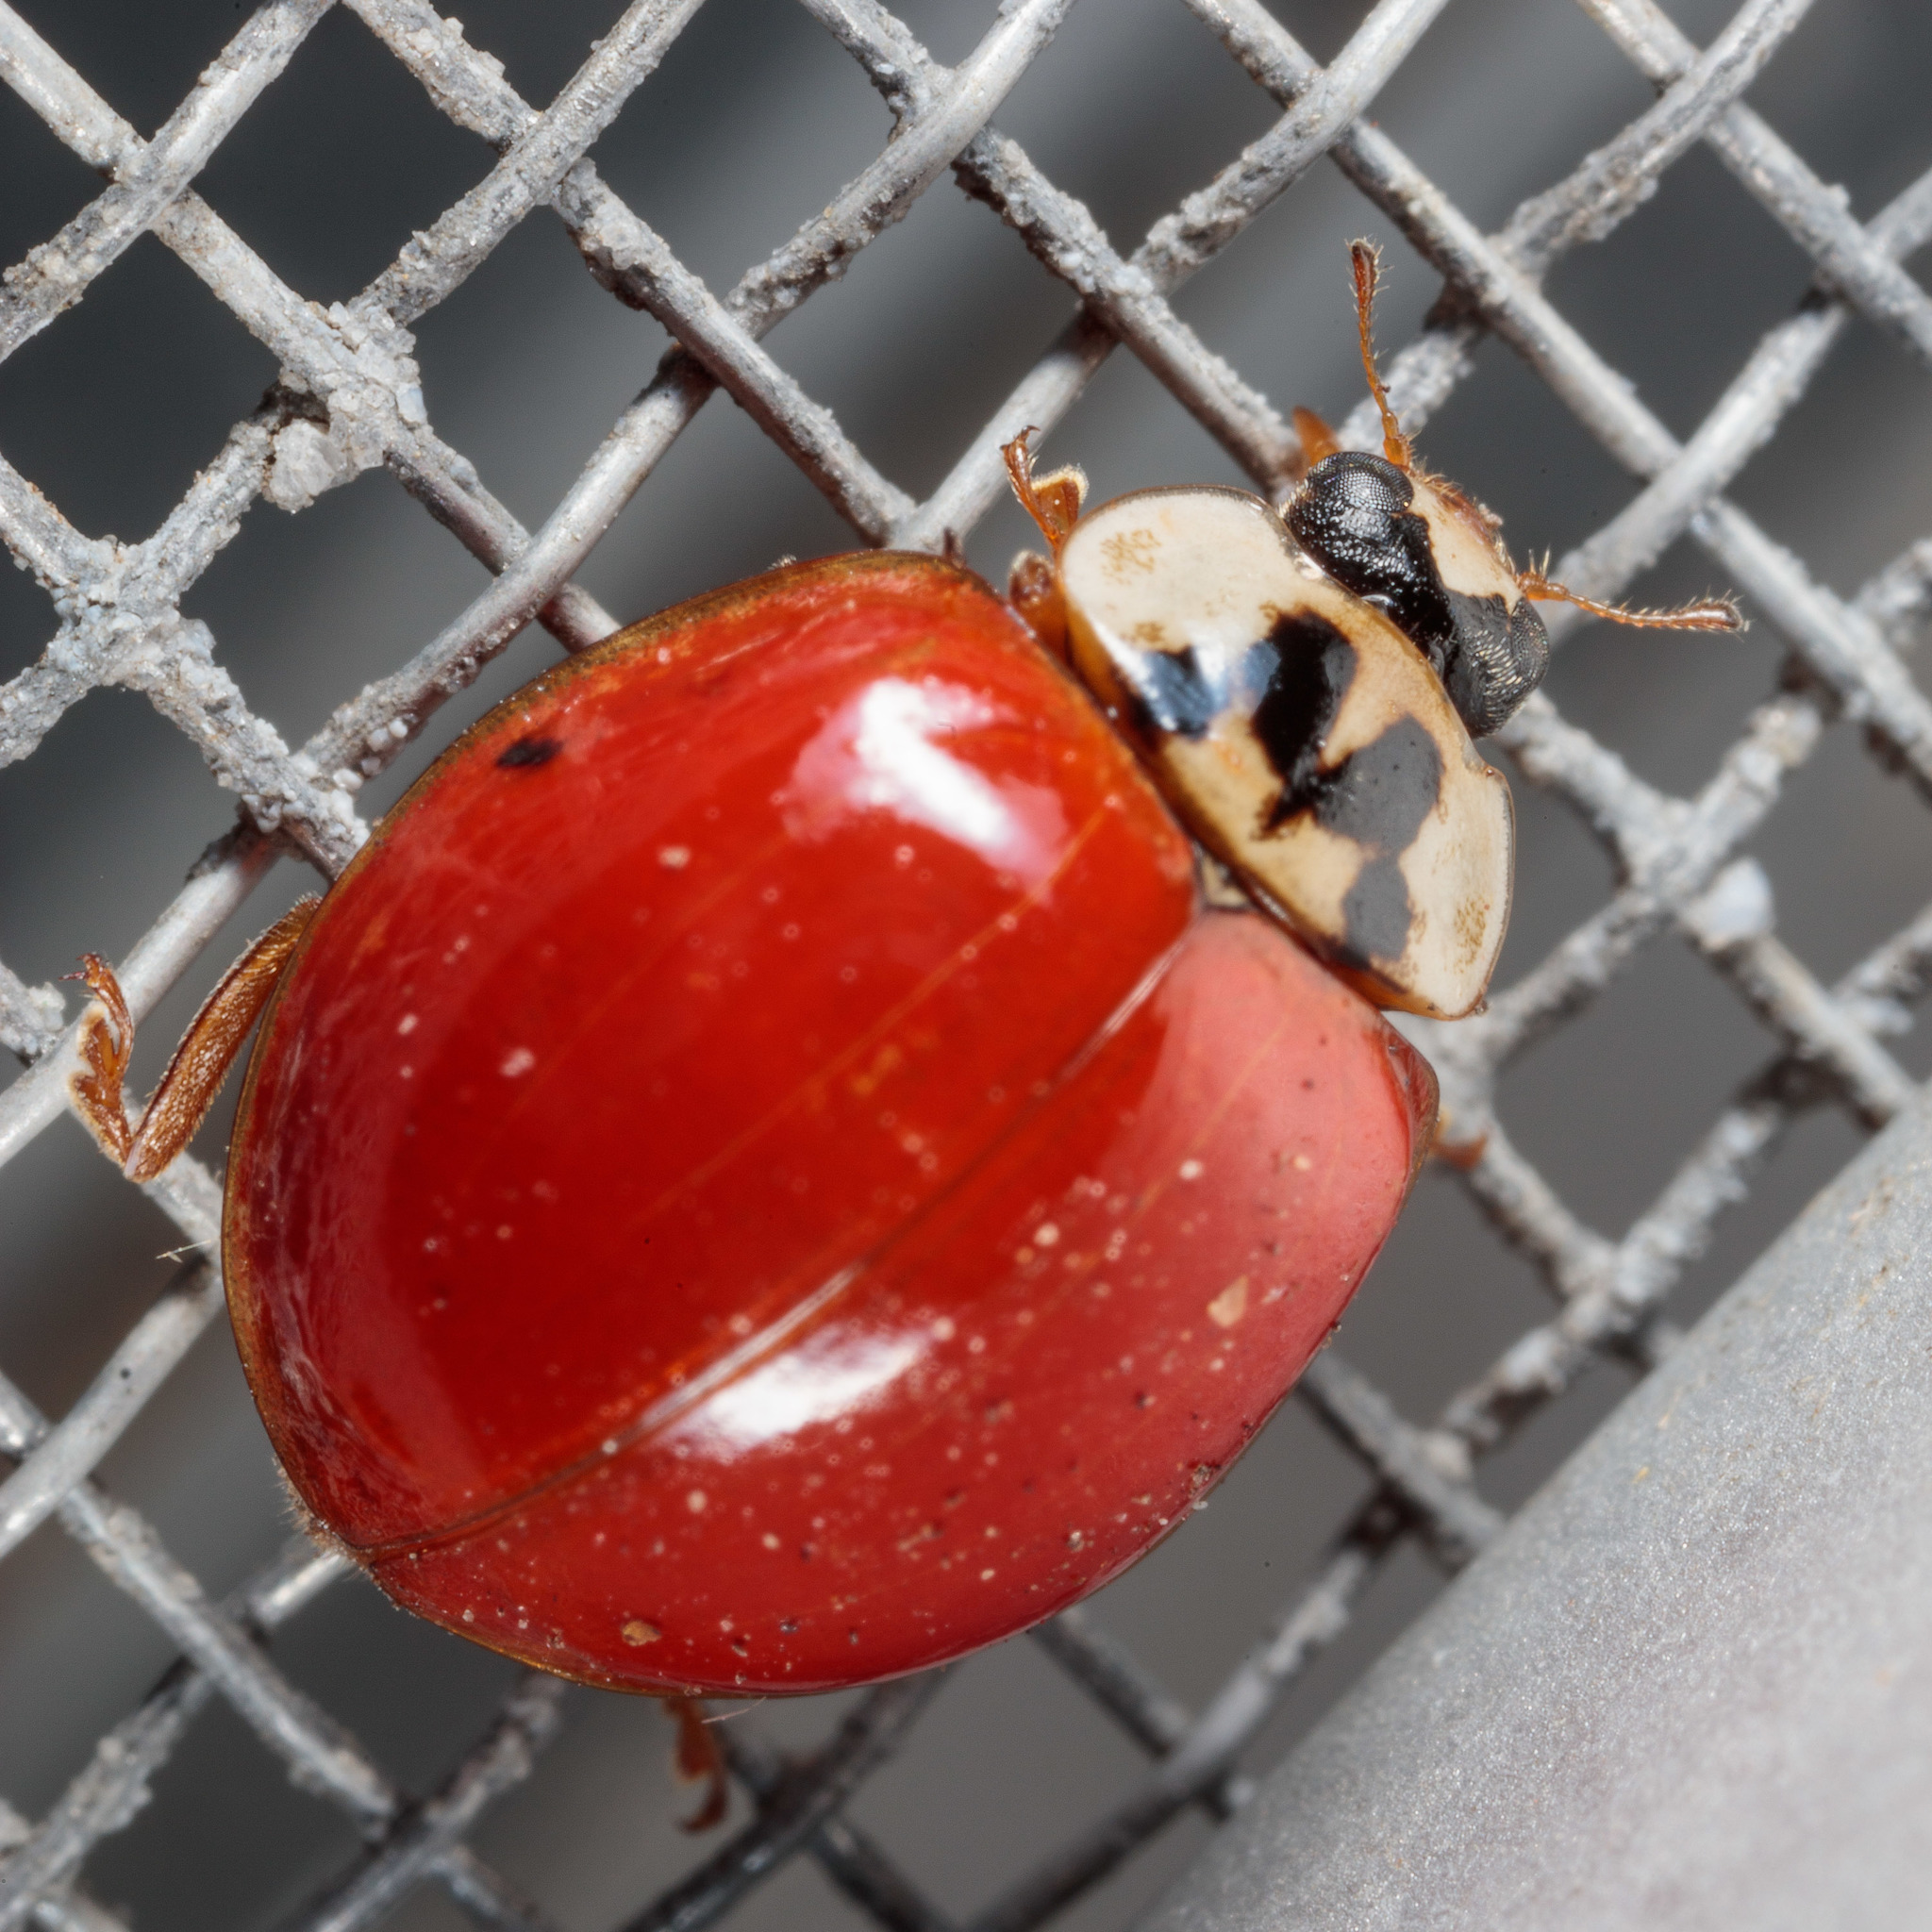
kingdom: Animalia
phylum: Arthropoda
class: Insecta
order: Coleoptera
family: Coccinellidae
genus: Harmonia
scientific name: Harmonia axyridis
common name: Harlequin ladybird
